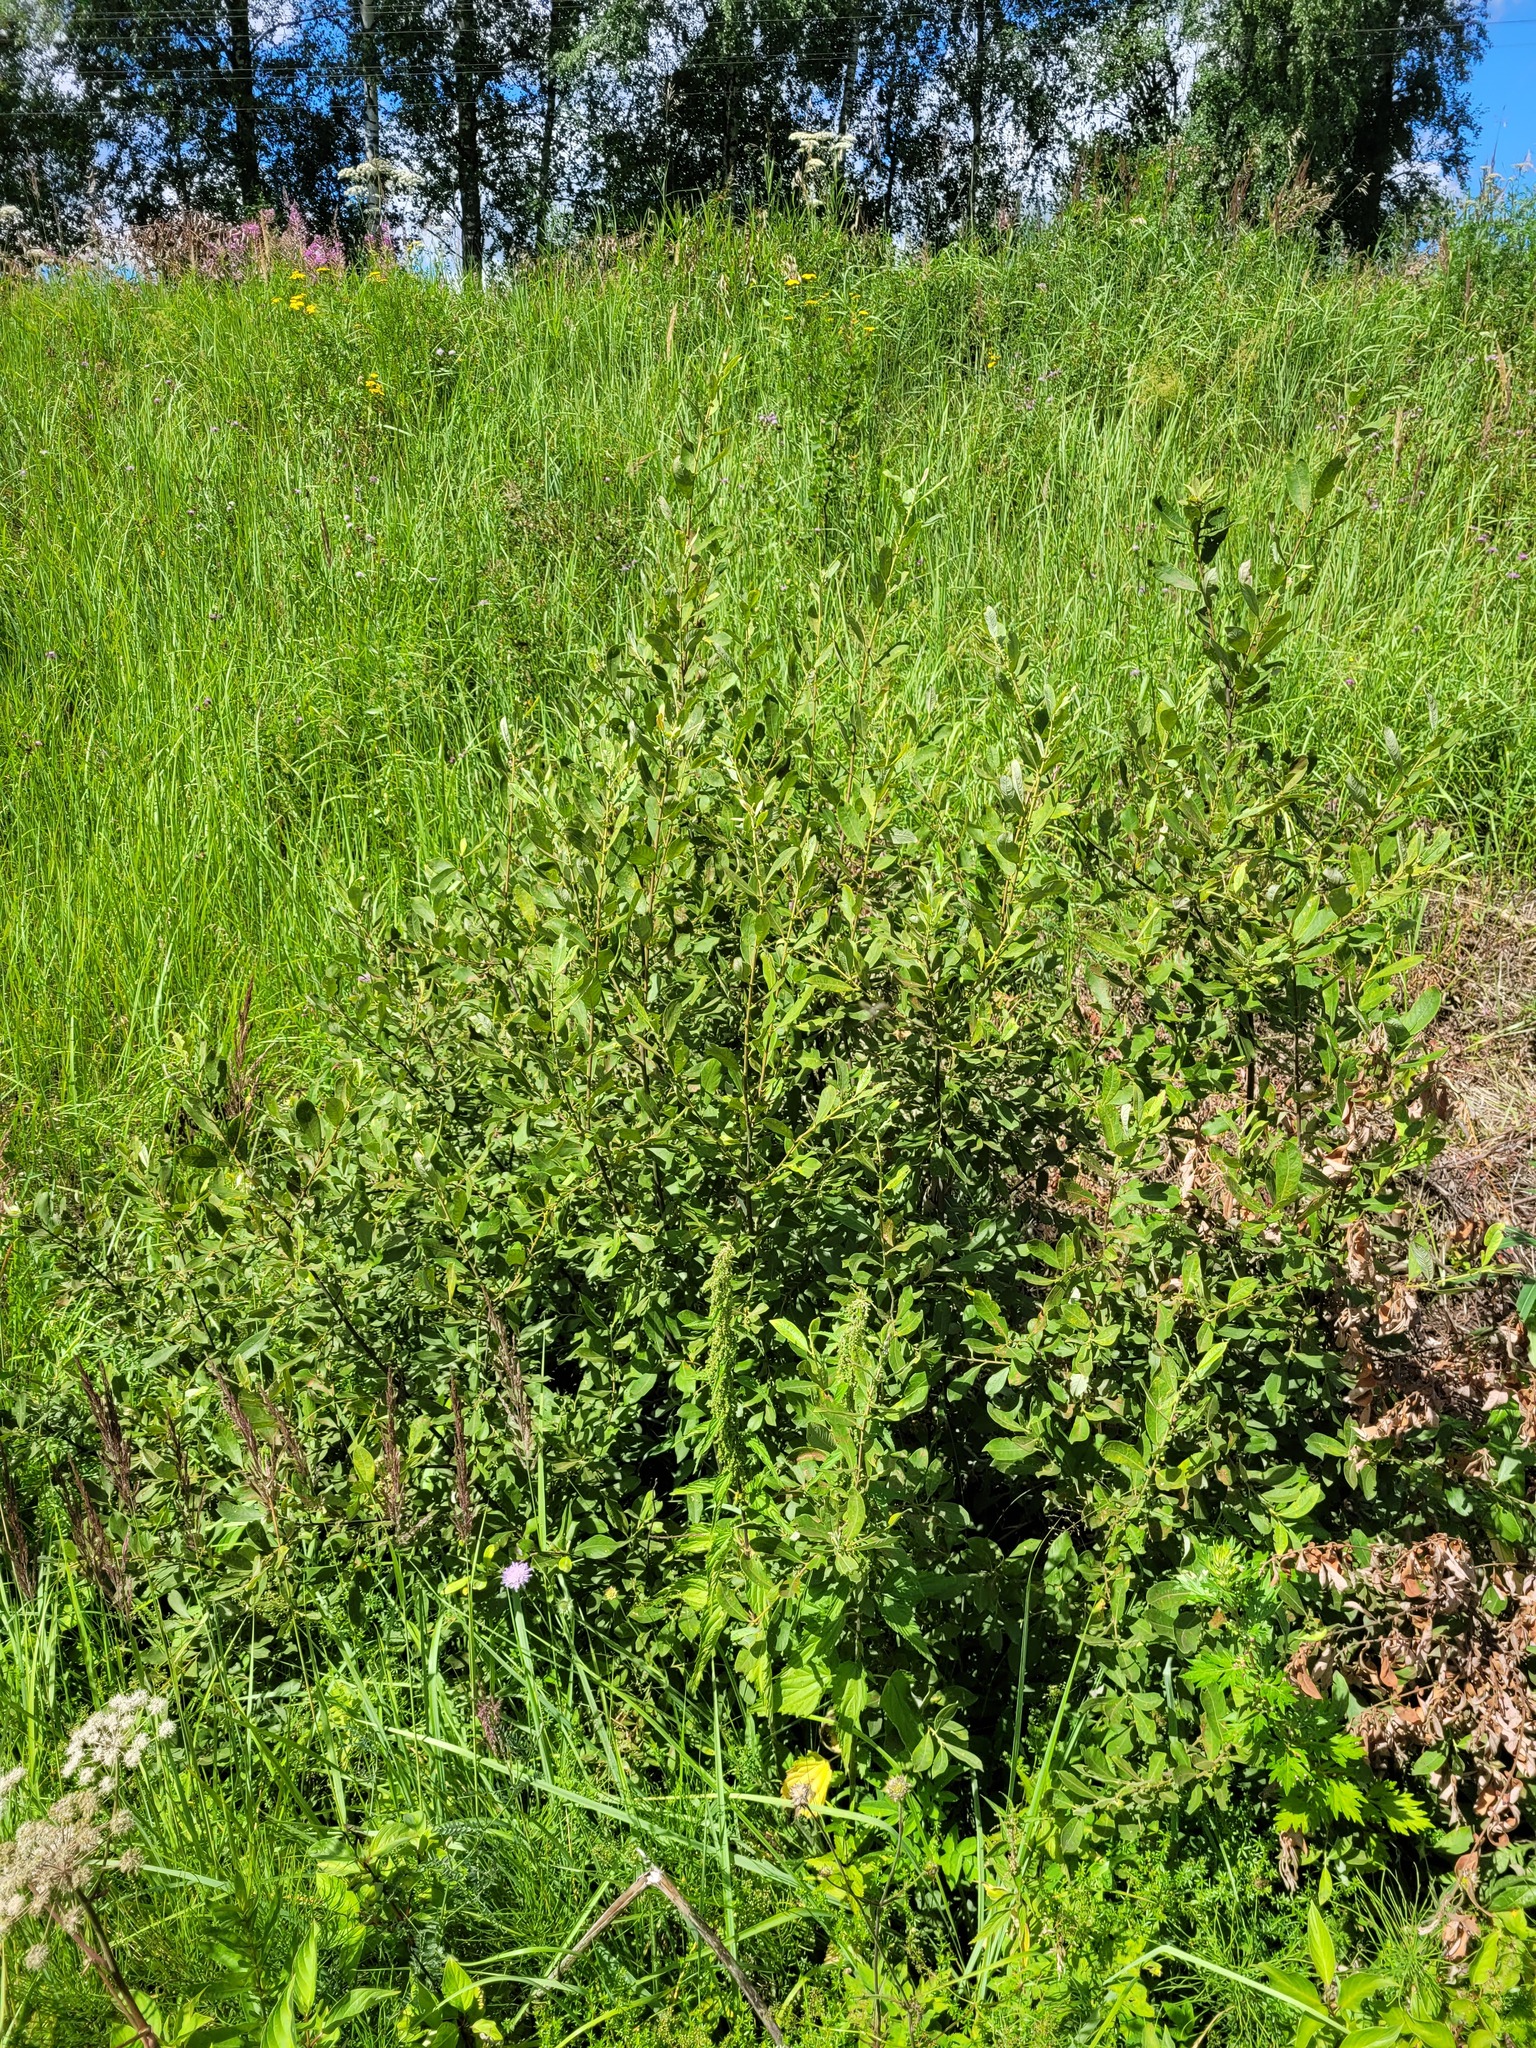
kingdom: Plantae
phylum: Tracheophyta
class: Magnoliopsida
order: Malpighiales
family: Salicaceae
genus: Salix
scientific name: Salix cinerea
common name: Common sallow
